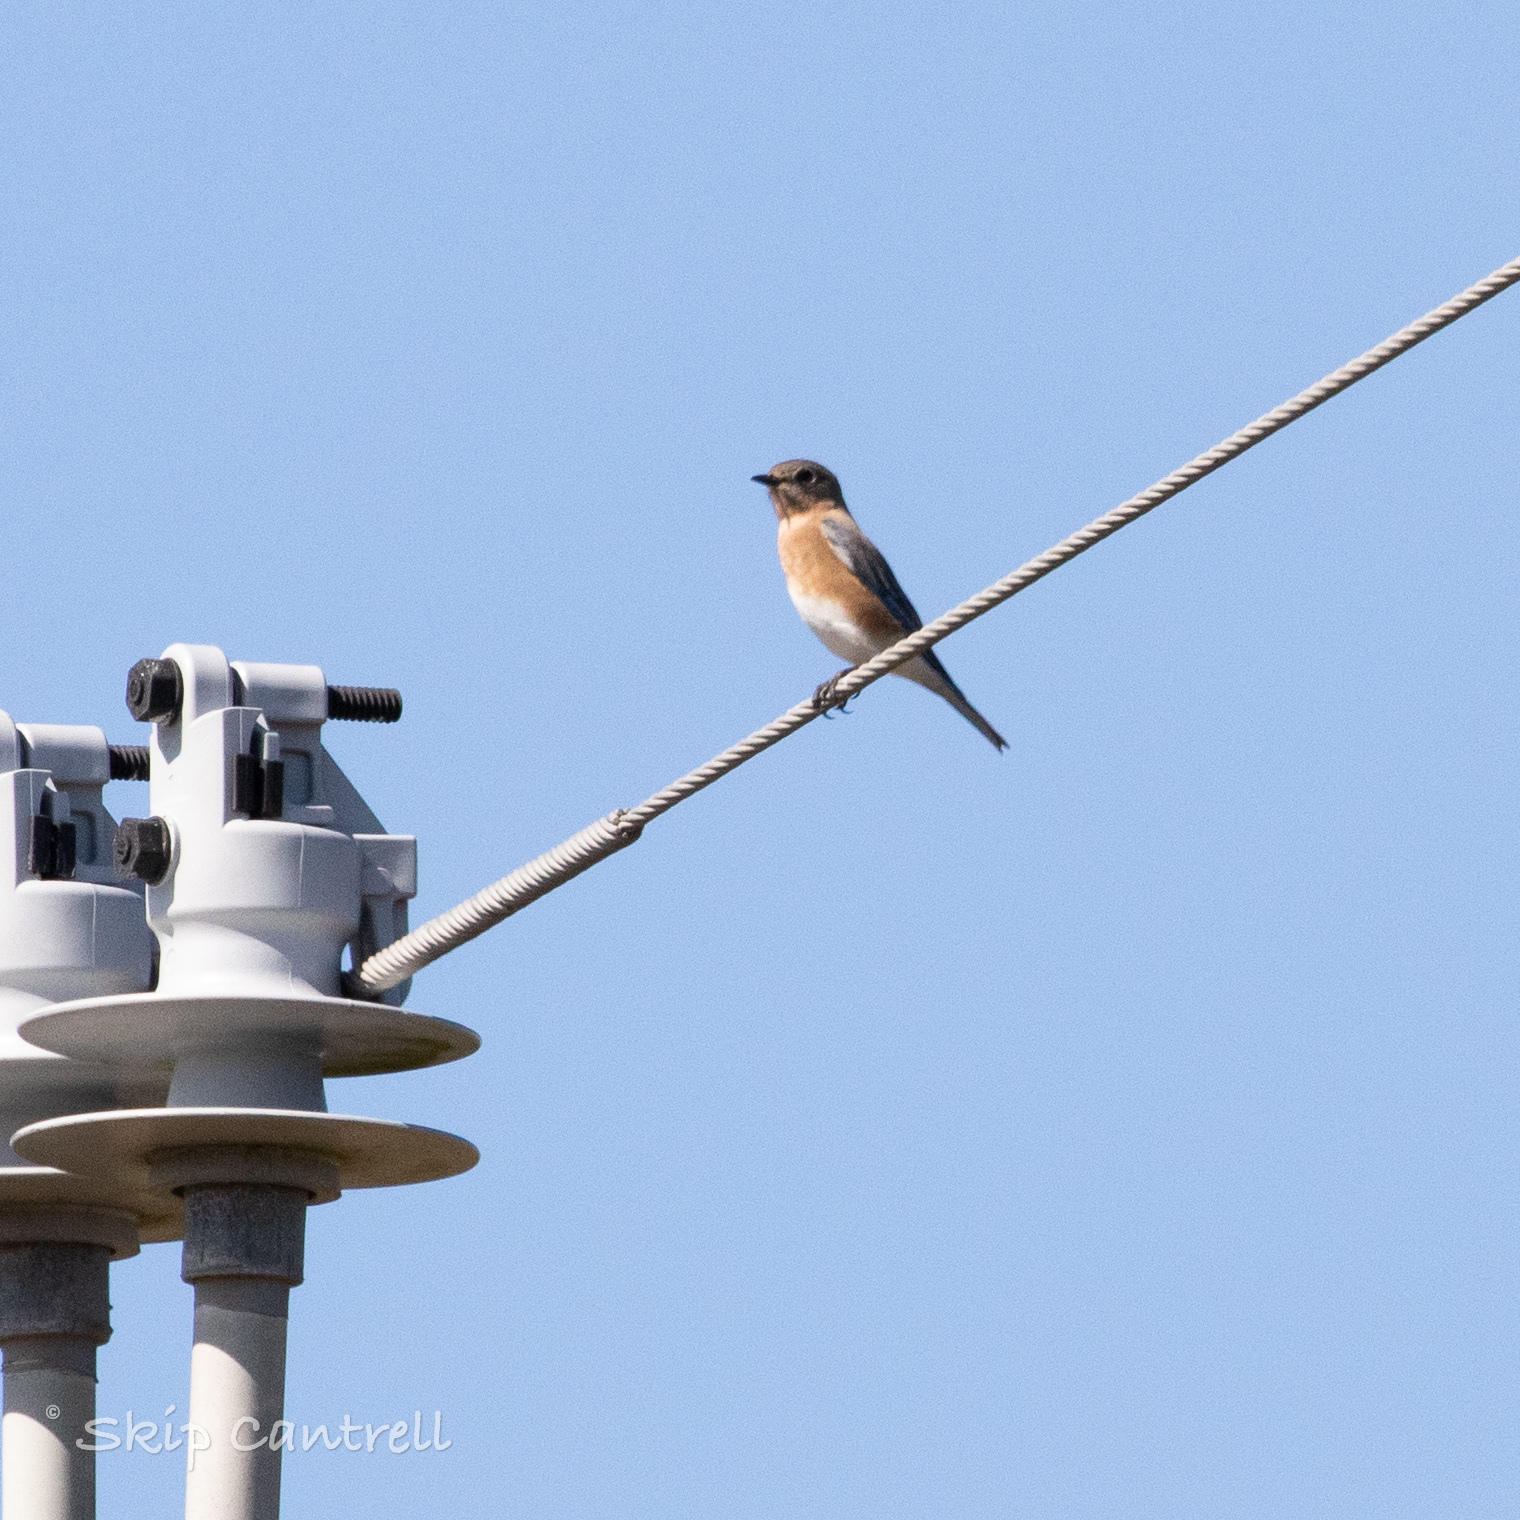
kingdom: Animalia
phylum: Chordata
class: Aves
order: Passeriformes
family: Turdidae
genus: Sialia
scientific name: Sialia sialis
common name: Eastern bluebird
